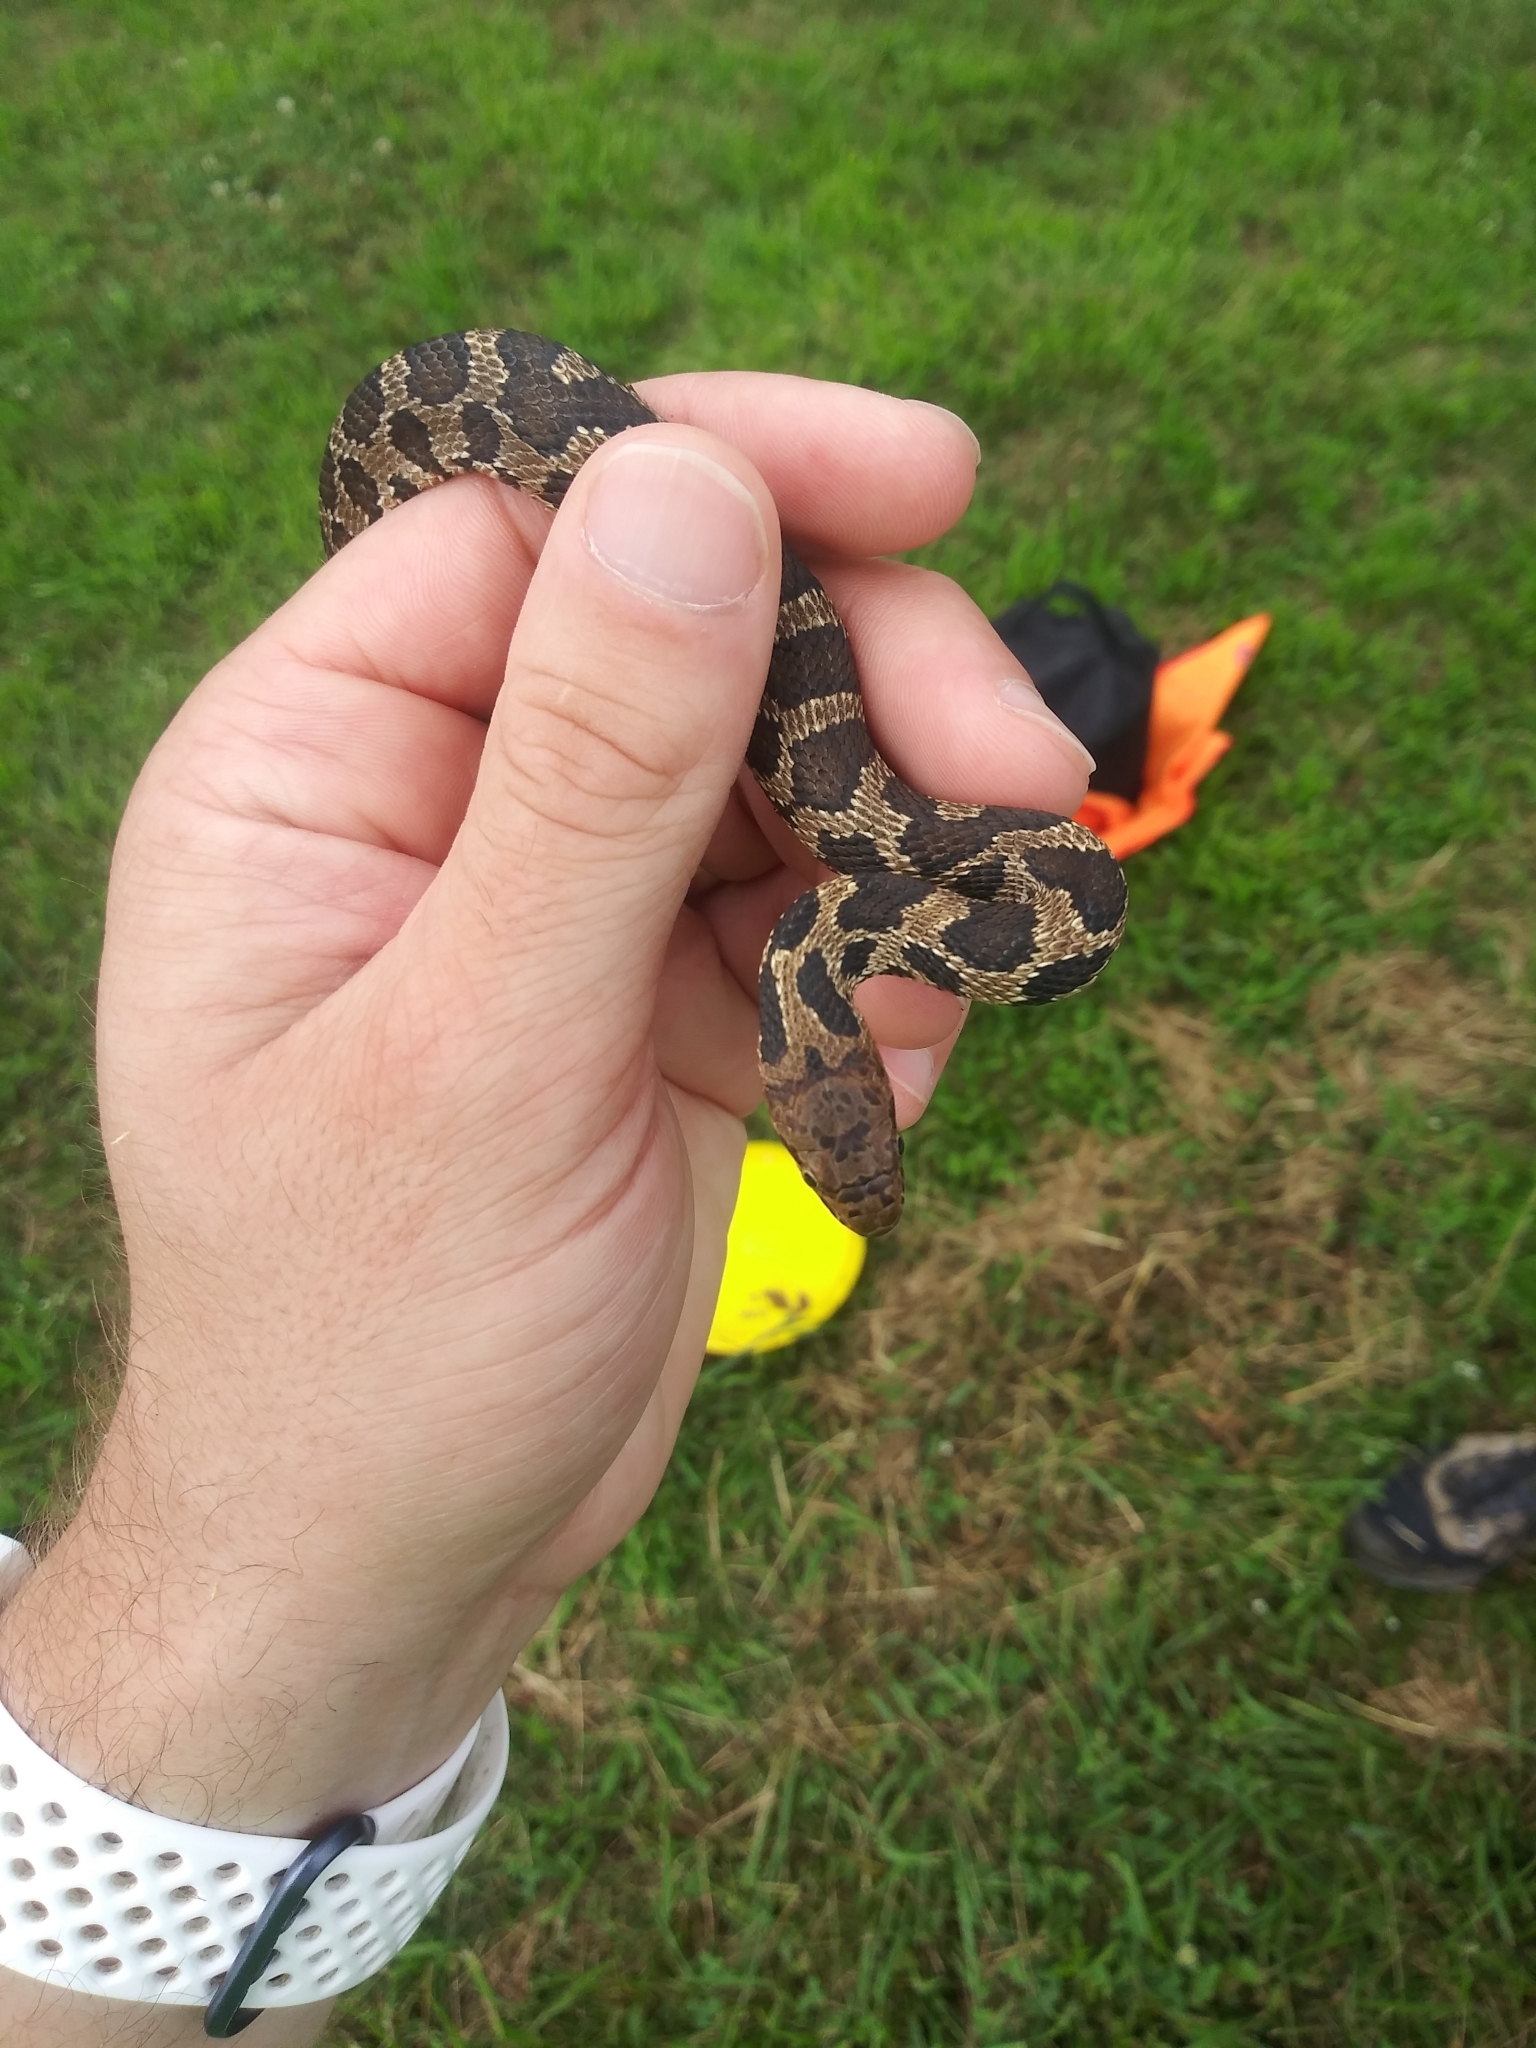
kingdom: Animalia
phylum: Chordata
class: Squamata
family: Colubridae
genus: Pantherophis
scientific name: Pantherophis vulpinus
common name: Eastern fox snake
